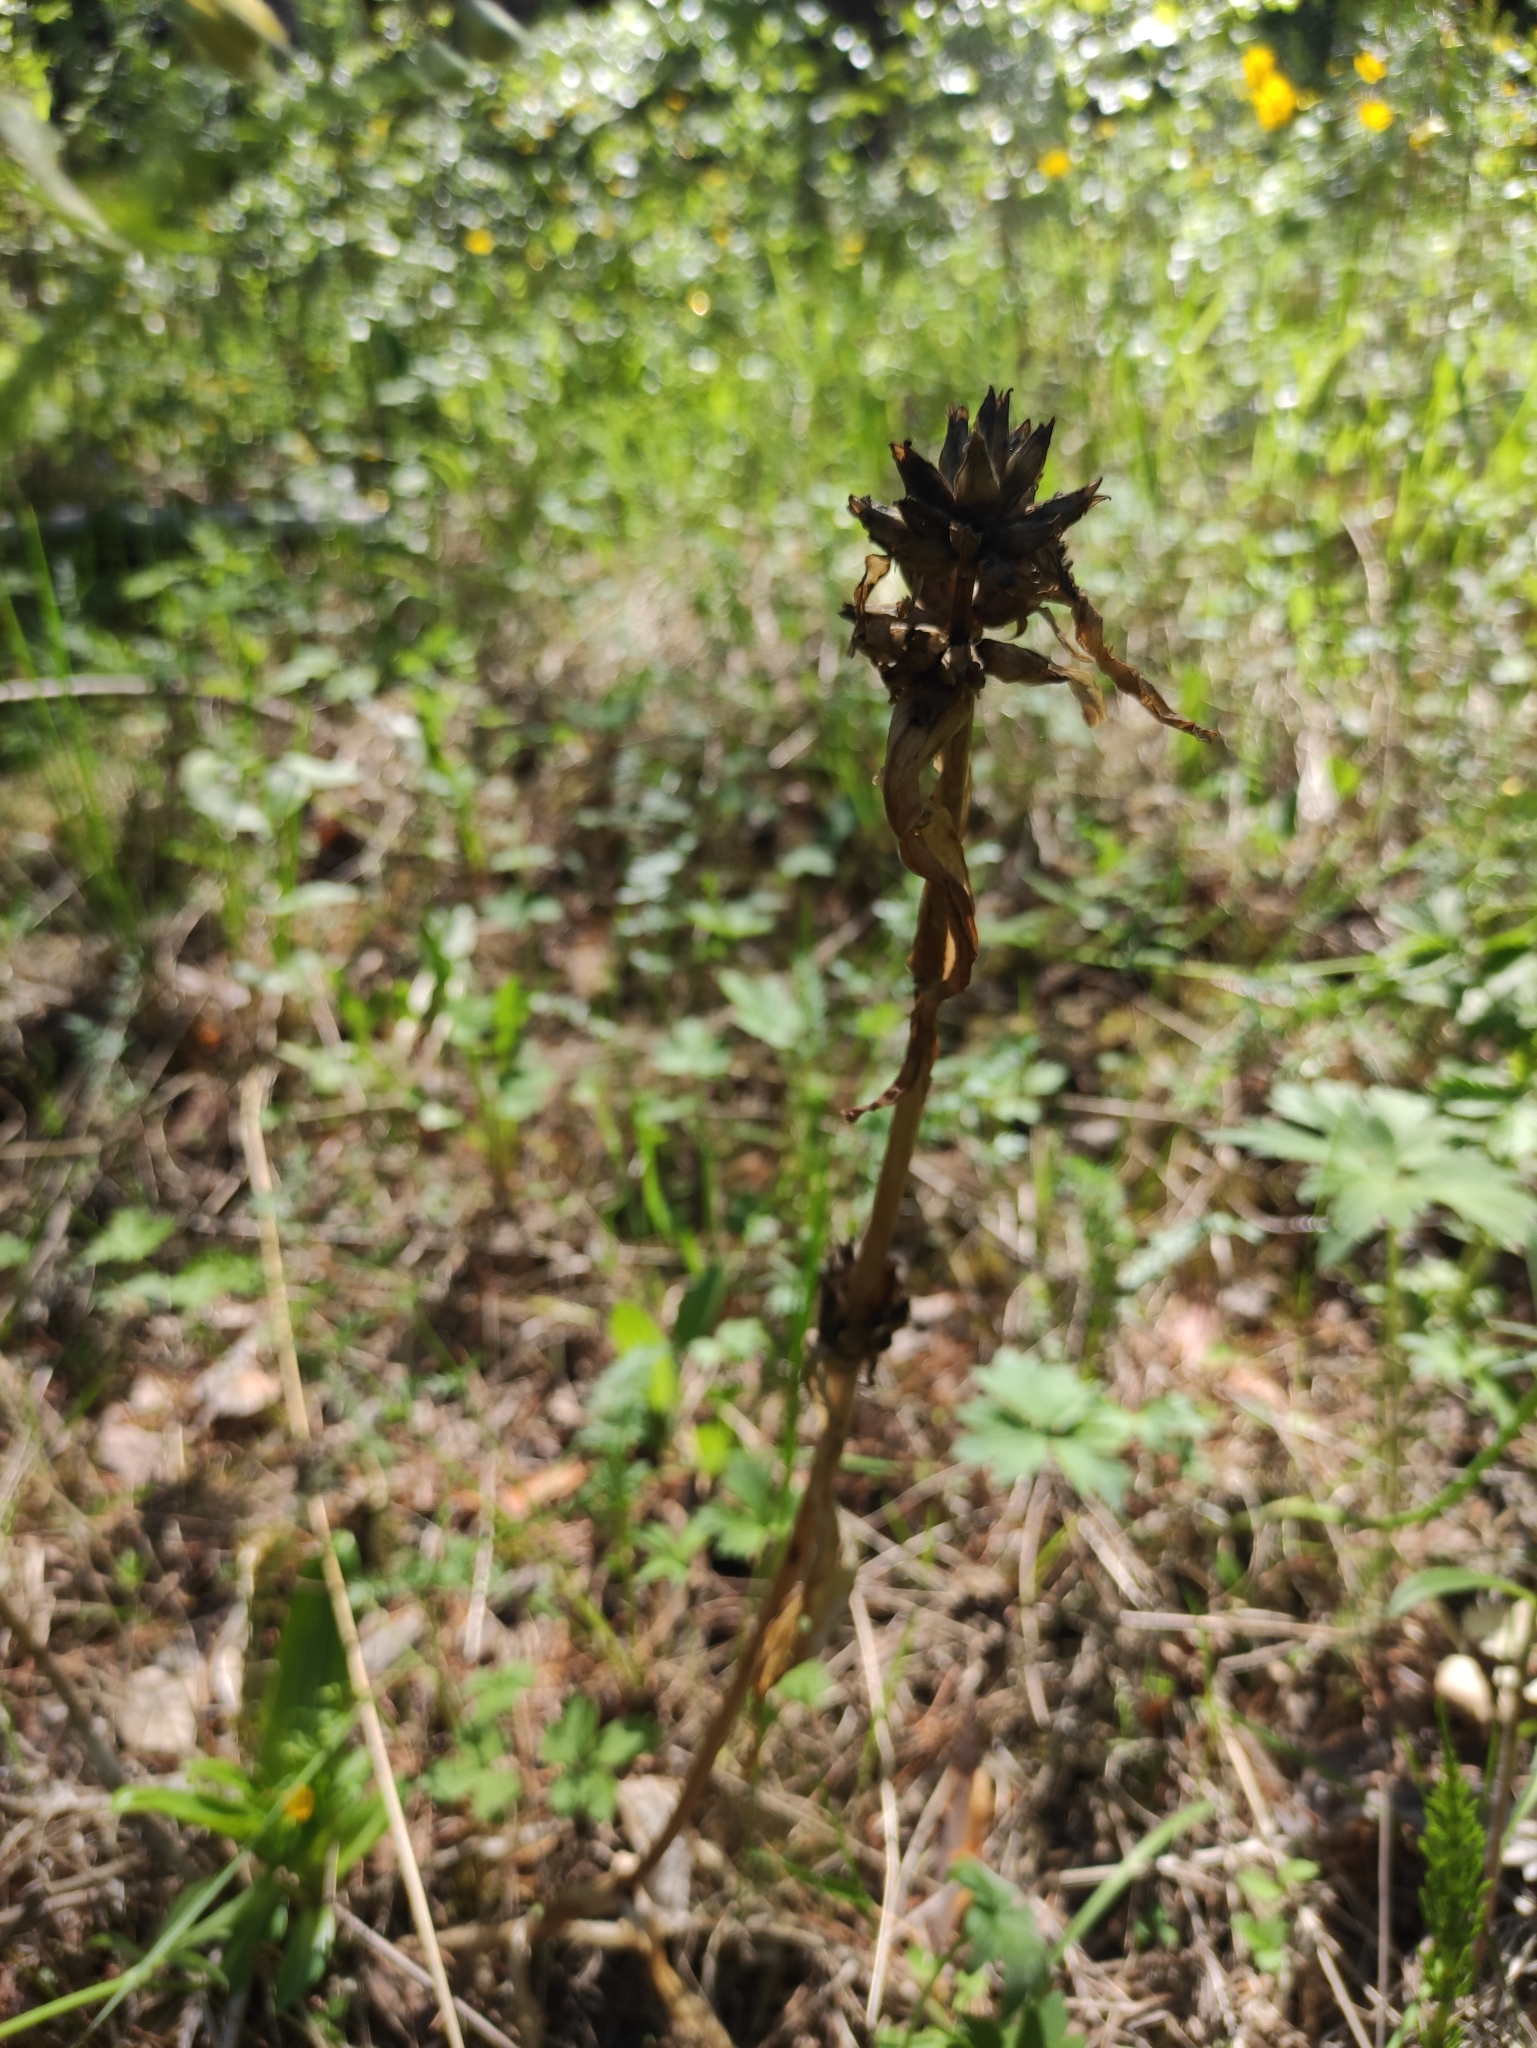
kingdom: Plantae
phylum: Tracheophyta
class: Magnoliopsida
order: Gentianales
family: Gentianaceae
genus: Gentiana
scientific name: Gentiana macrophylla
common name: Large-leaf gentian
